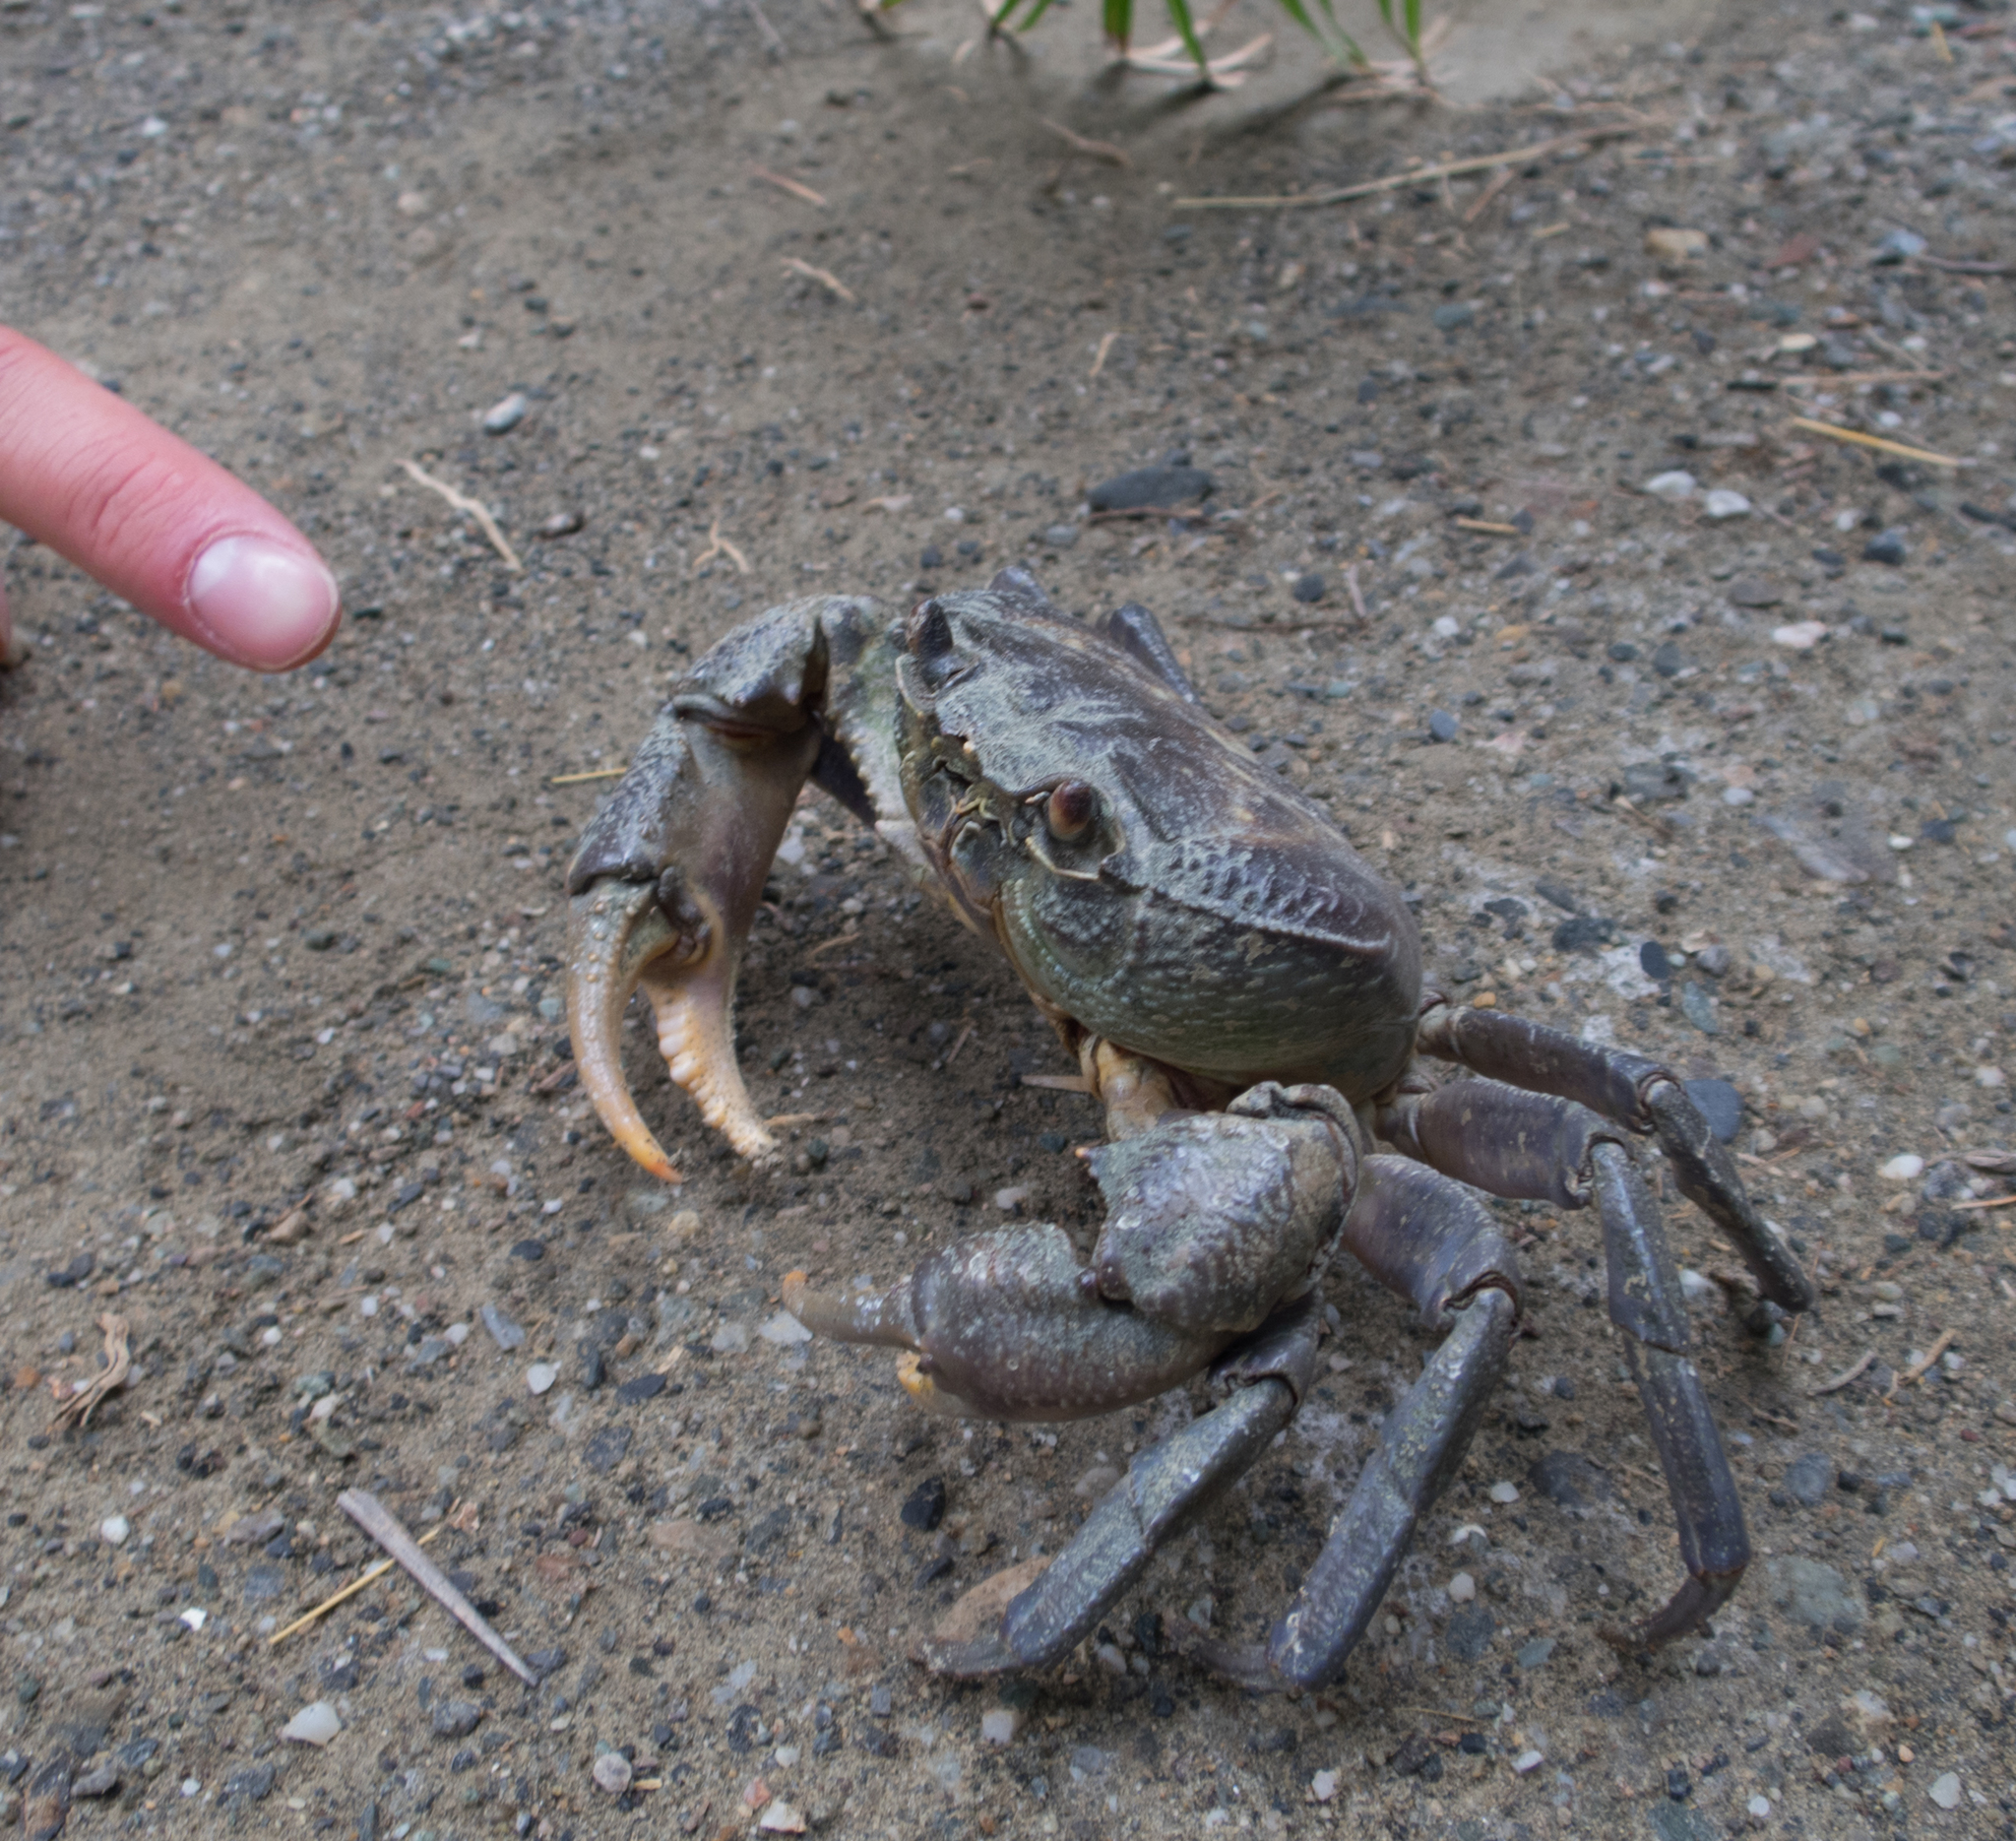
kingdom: Animalia
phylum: Arthropoda
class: Malacostraca
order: Decapoda
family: Potamidae
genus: Potamon
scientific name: Potamon hippocratis
